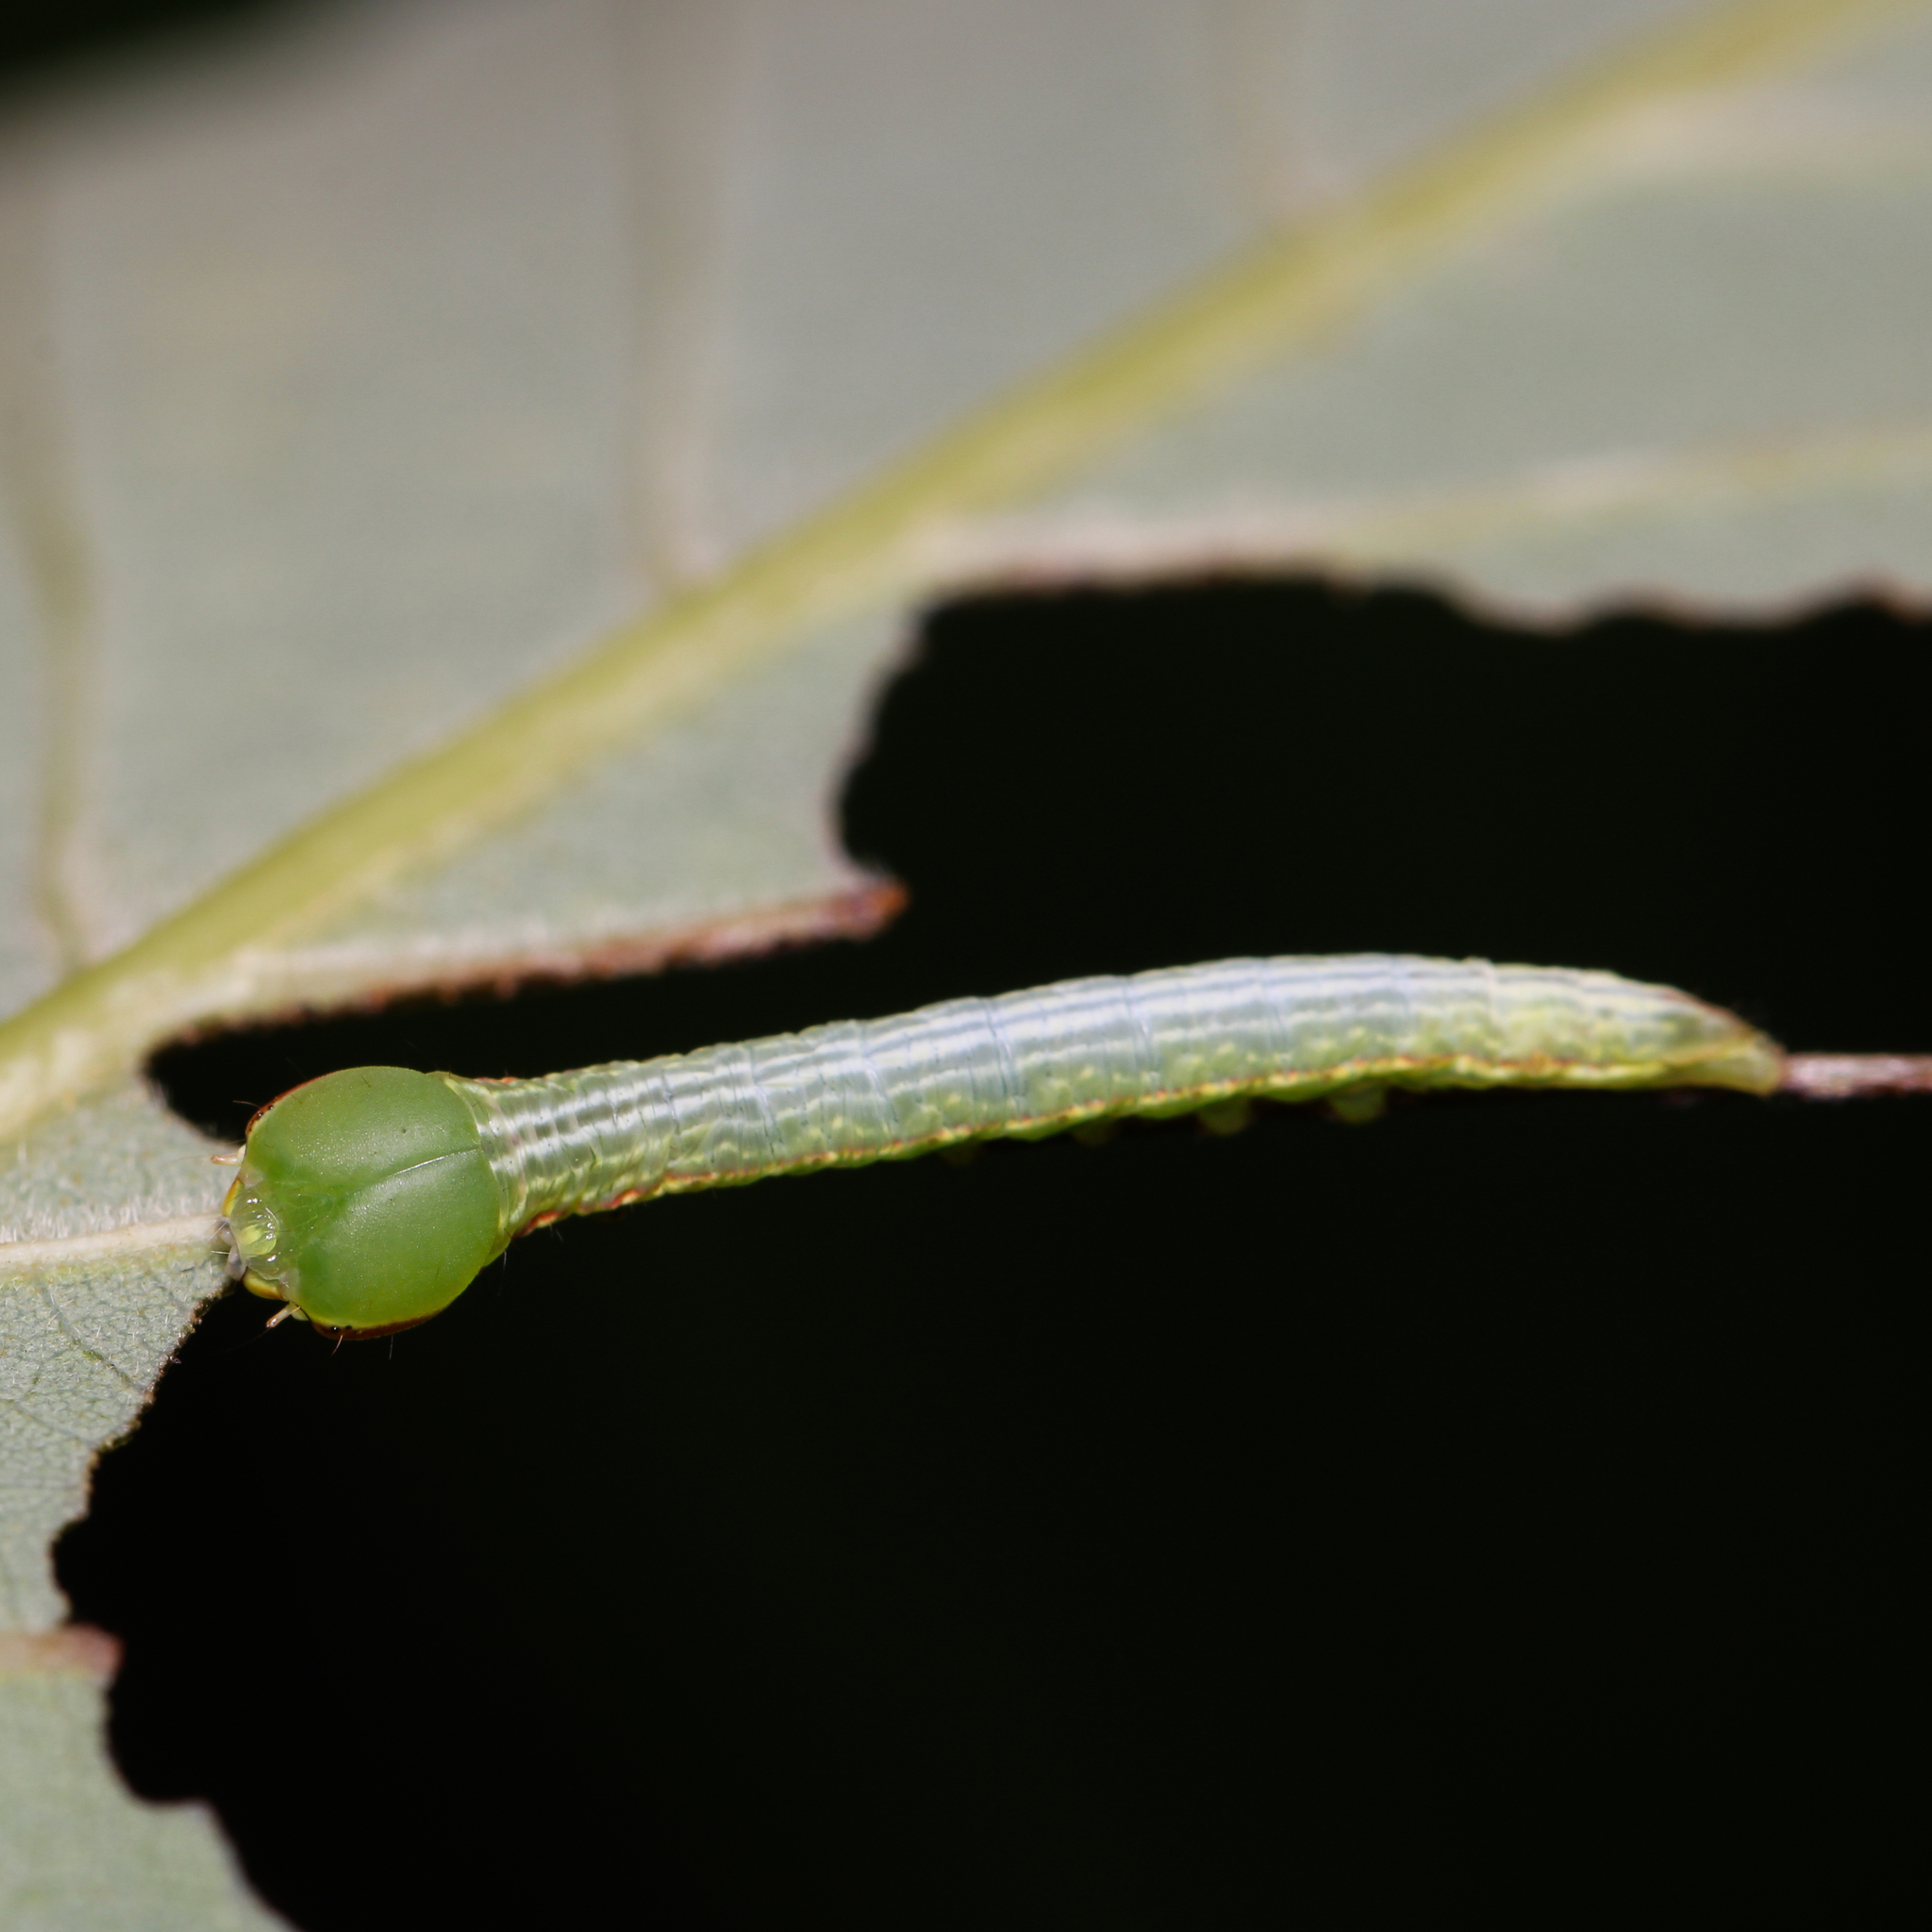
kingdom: Animalia
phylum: Arthropoda
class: Insecta
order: Lepidoptera
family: Notodontidae
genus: Peridea
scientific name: Peridea angulosa
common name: Angulose prominent
